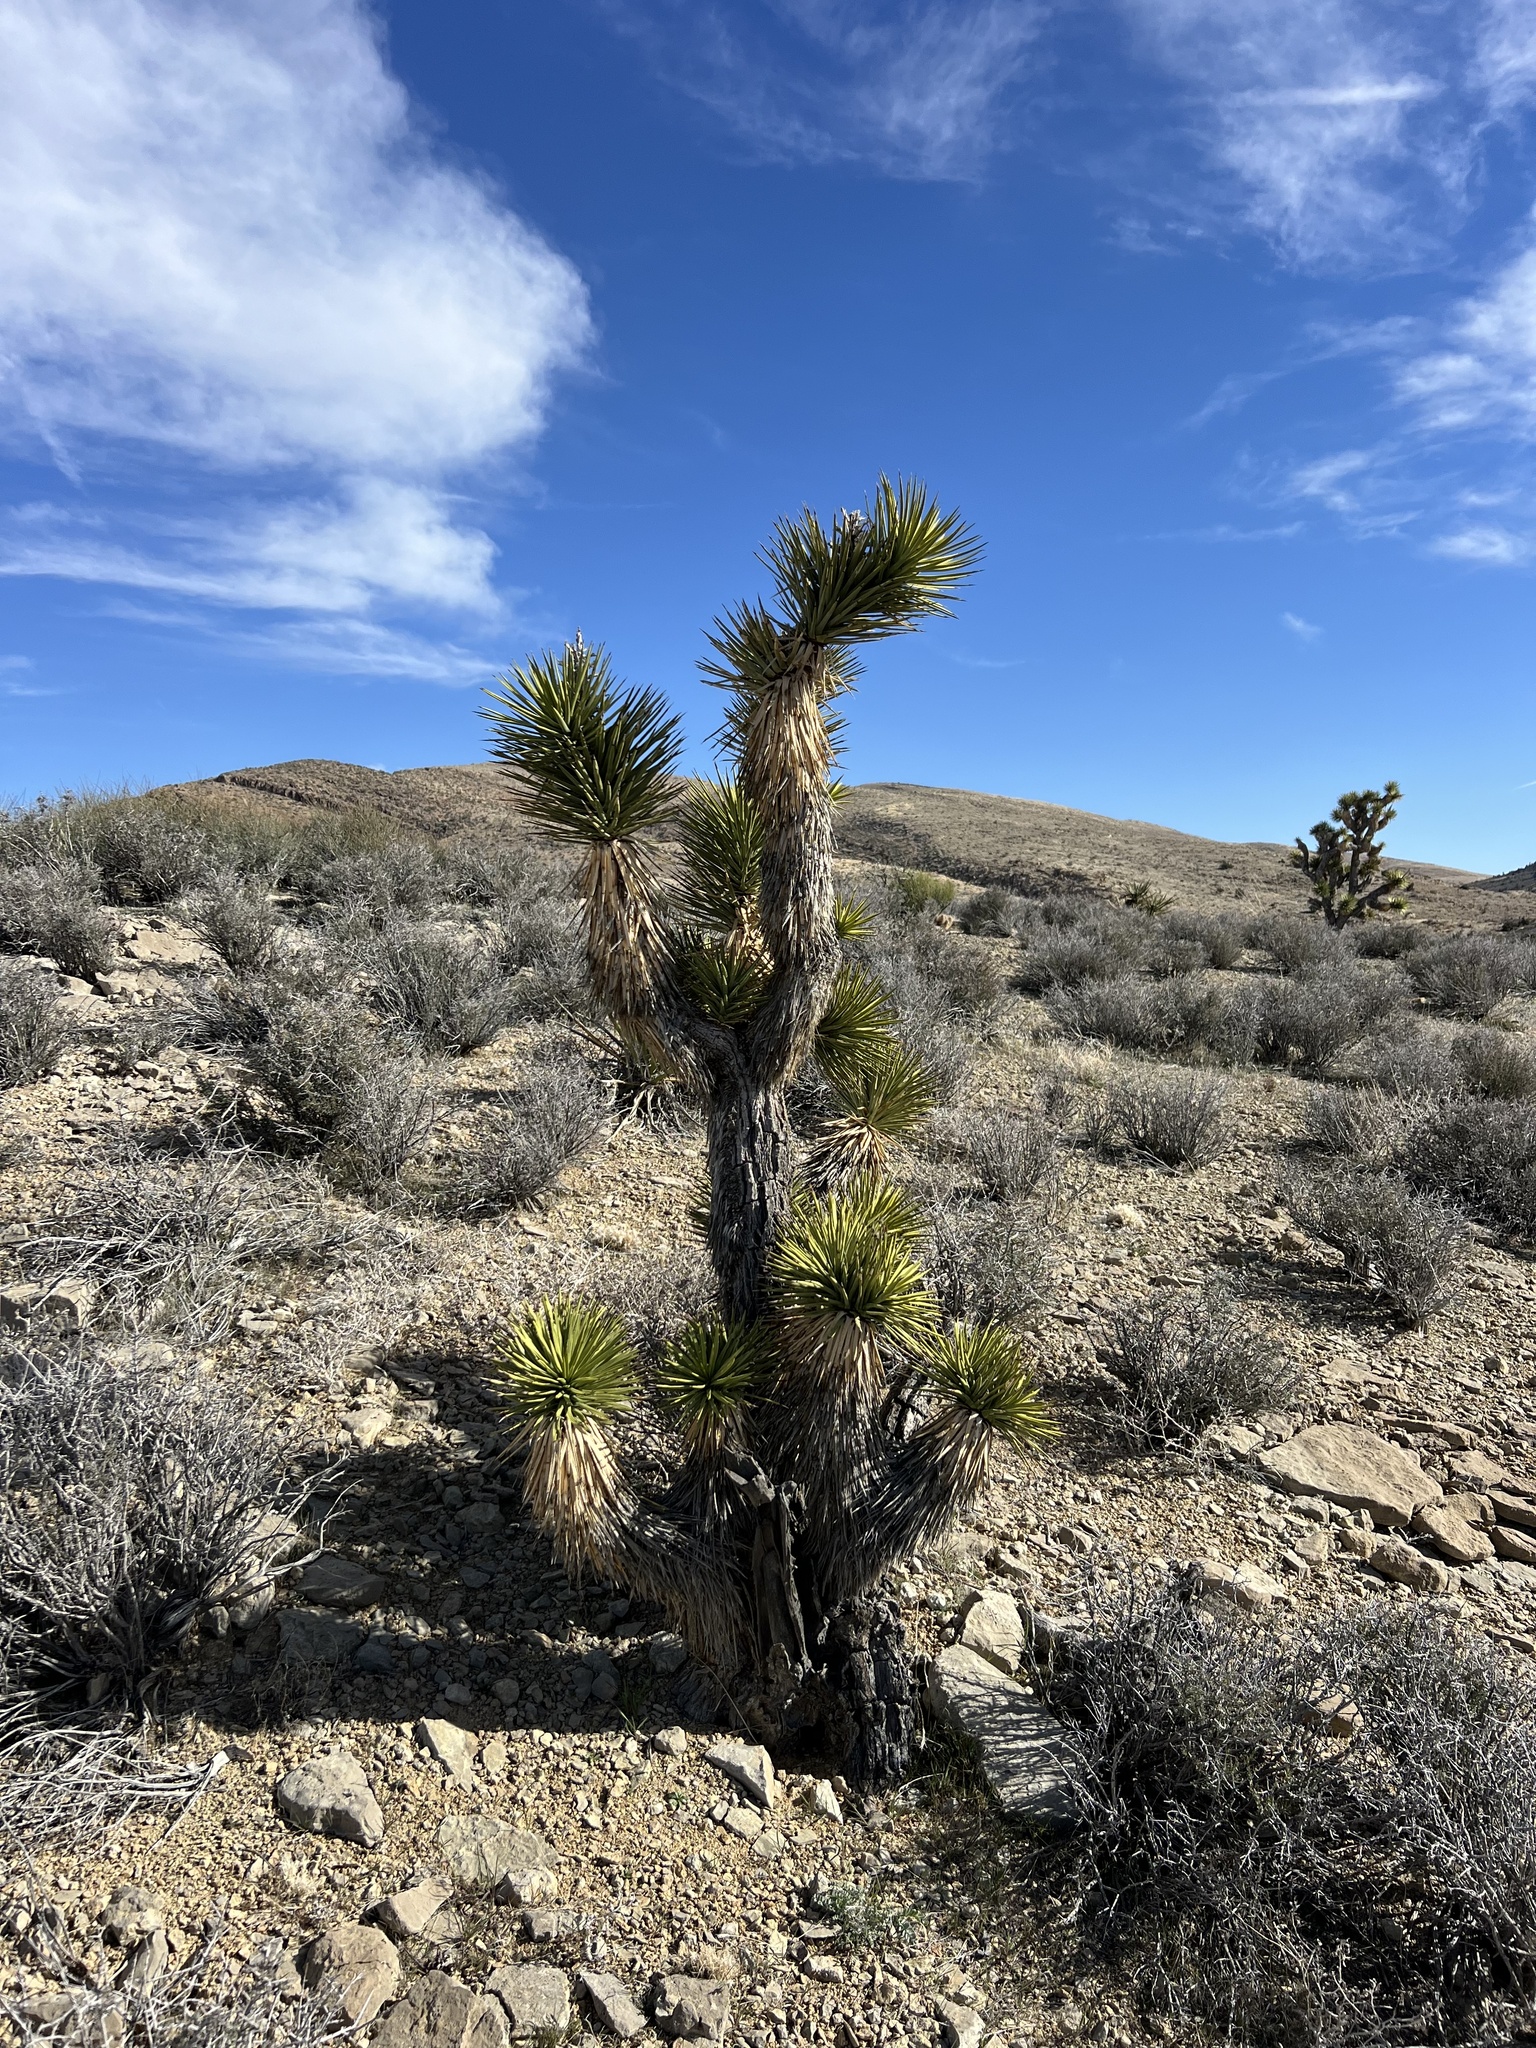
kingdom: Plantae
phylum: Tracheophyta
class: Liliopsida
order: Asparagales
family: Asparagaceae
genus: Yucca
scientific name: Yucca brevifolia
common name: Joshua tree
